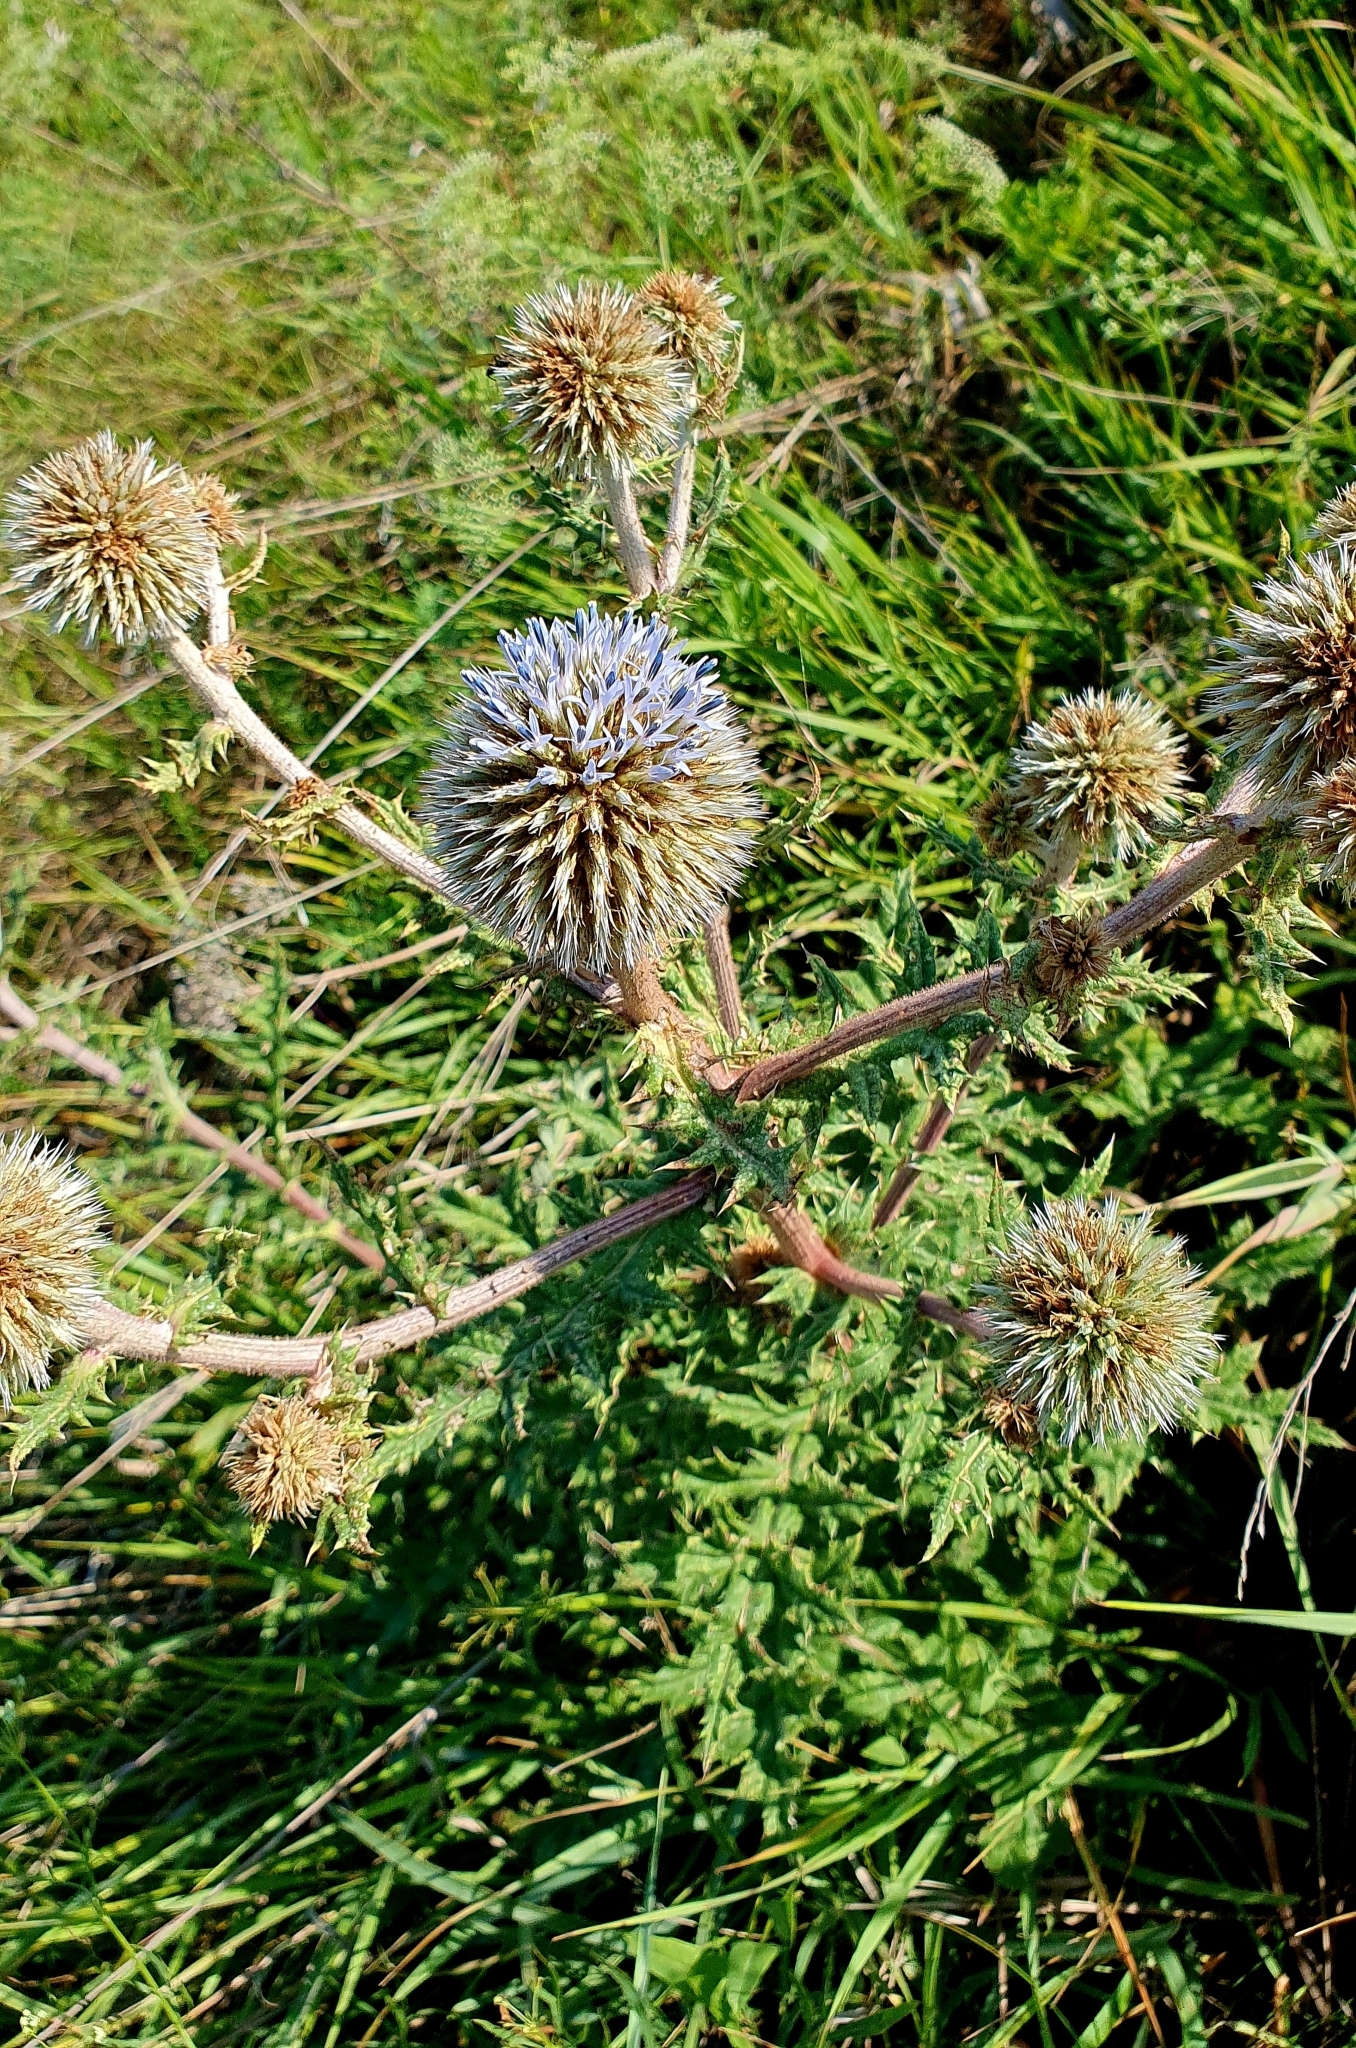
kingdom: Plantae
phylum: Tracheophyta
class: Magnoliopsida
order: Asterales
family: Asteraceae
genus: Echinops
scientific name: Echinops sphaerocephalus
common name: Glandular globe-thistle
